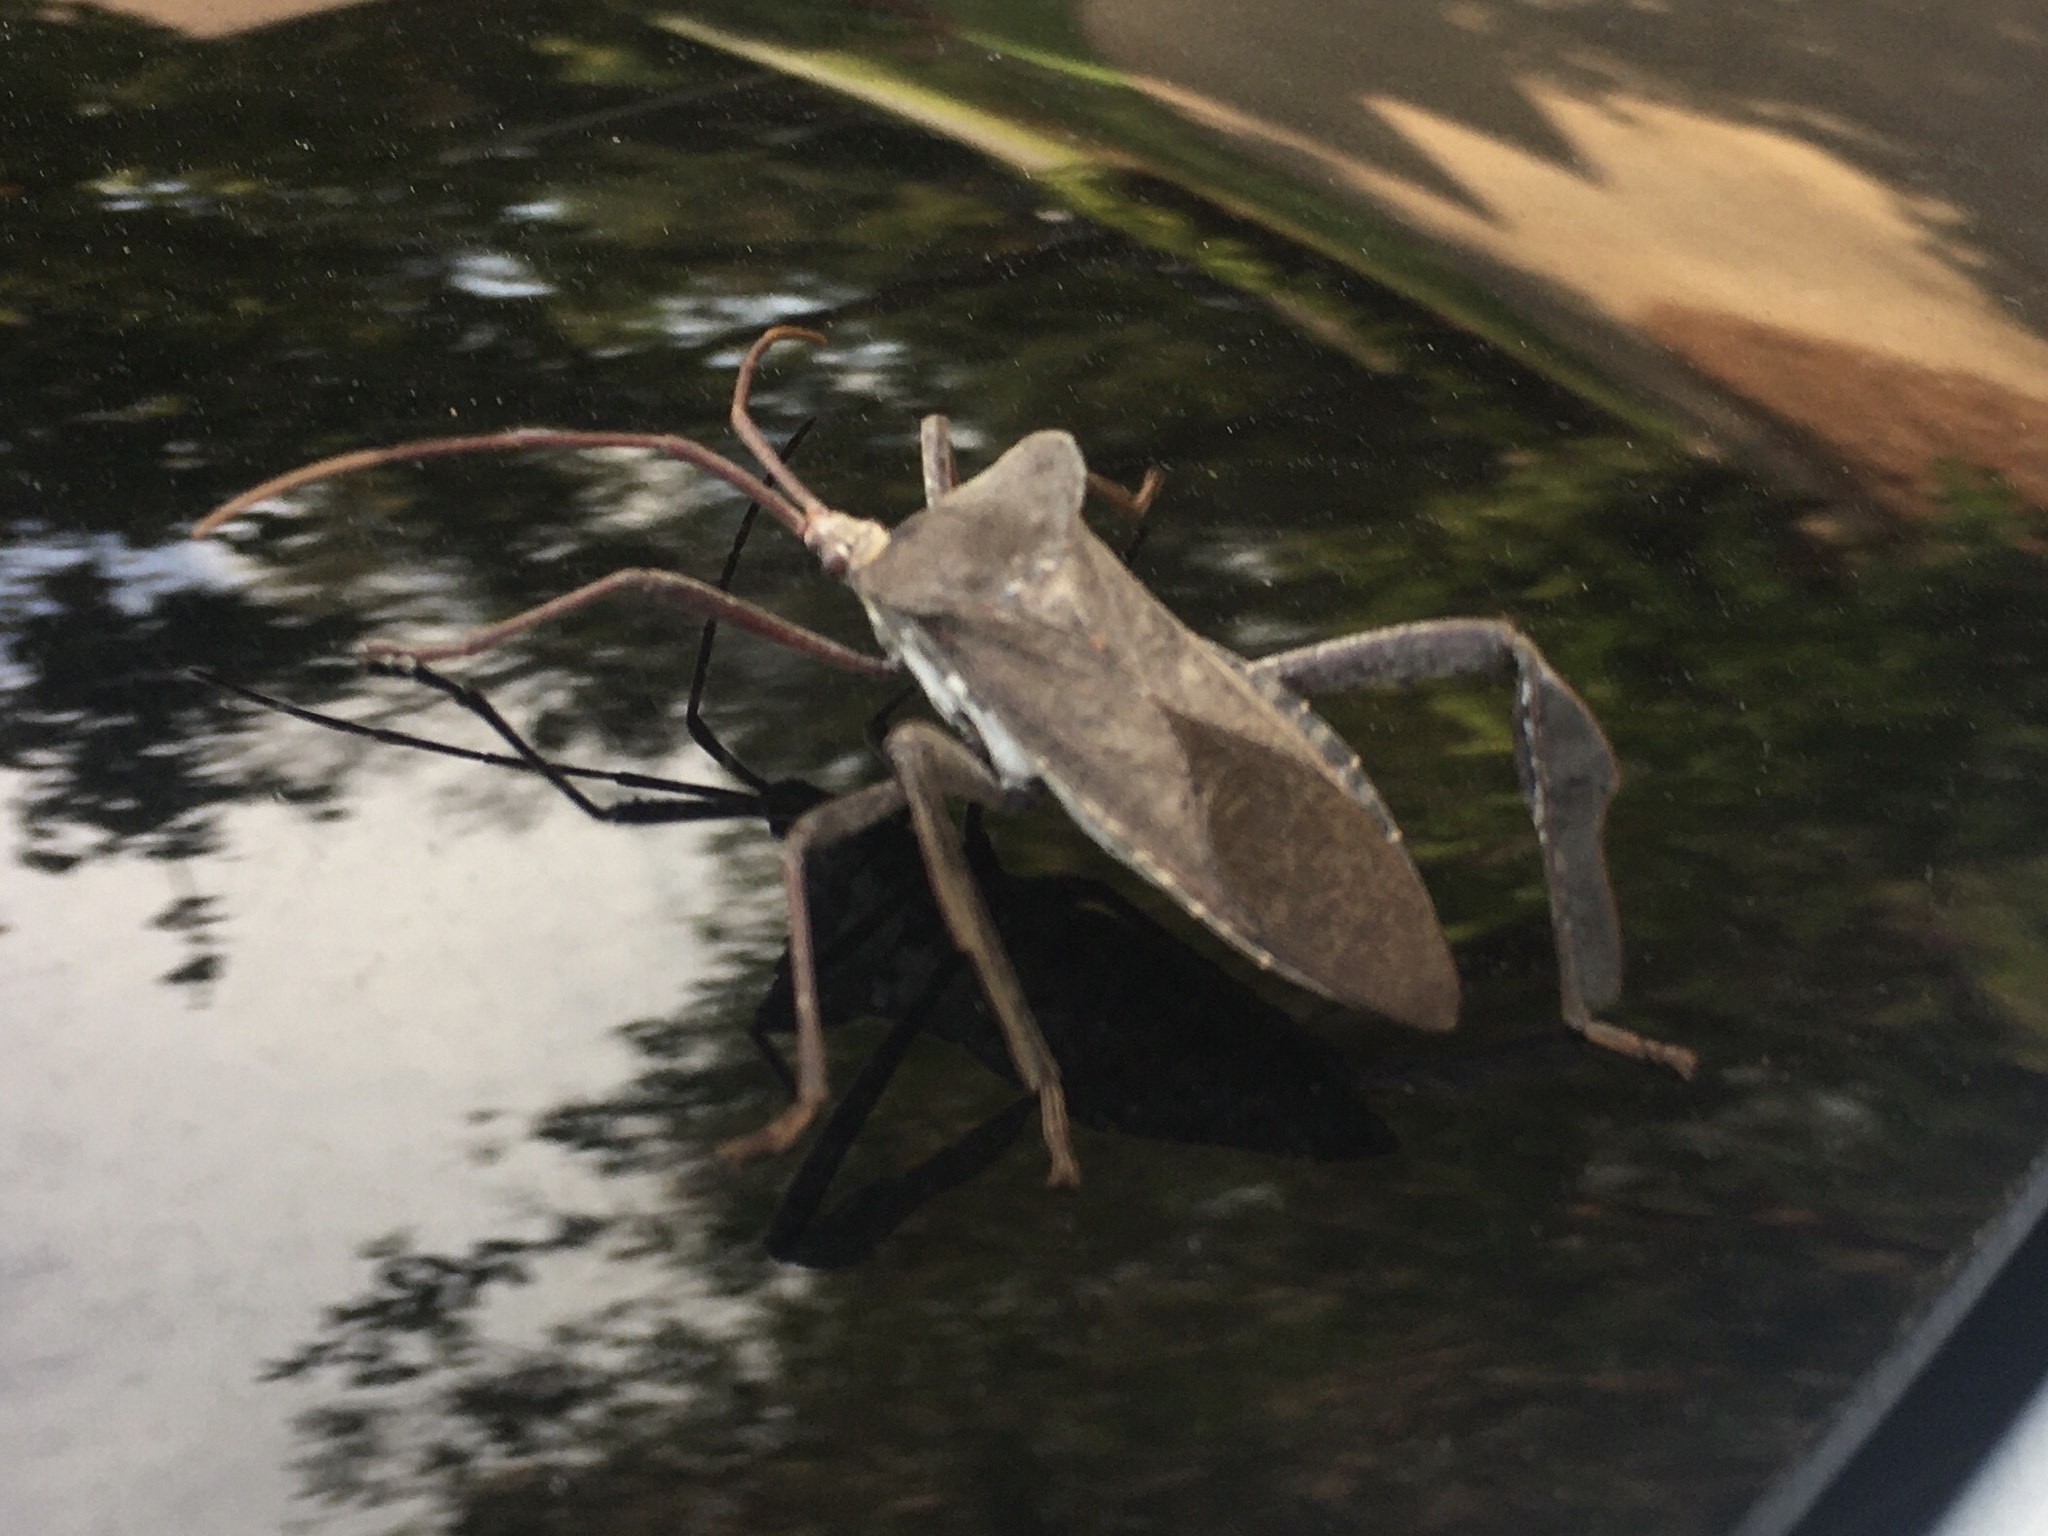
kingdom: Animalia
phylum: Arthropoda
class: Insecta
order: Hemiptera
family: Coreidae
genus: Acanthocephala
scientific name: Acanthocephala declivis
